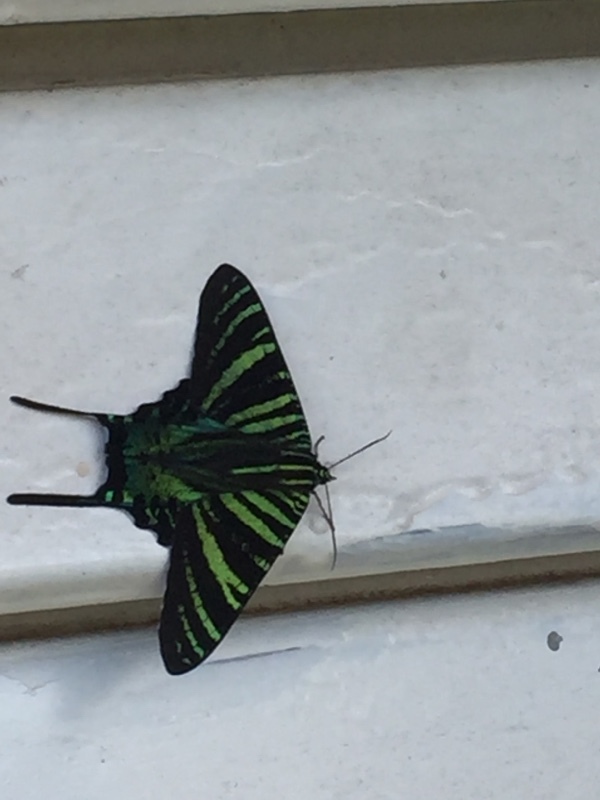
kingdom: Animalia
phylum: Arthropoda
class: Insecta
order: Lepidoptera
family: Uraniidae
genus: Urania
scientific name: Urania boisduvalii
